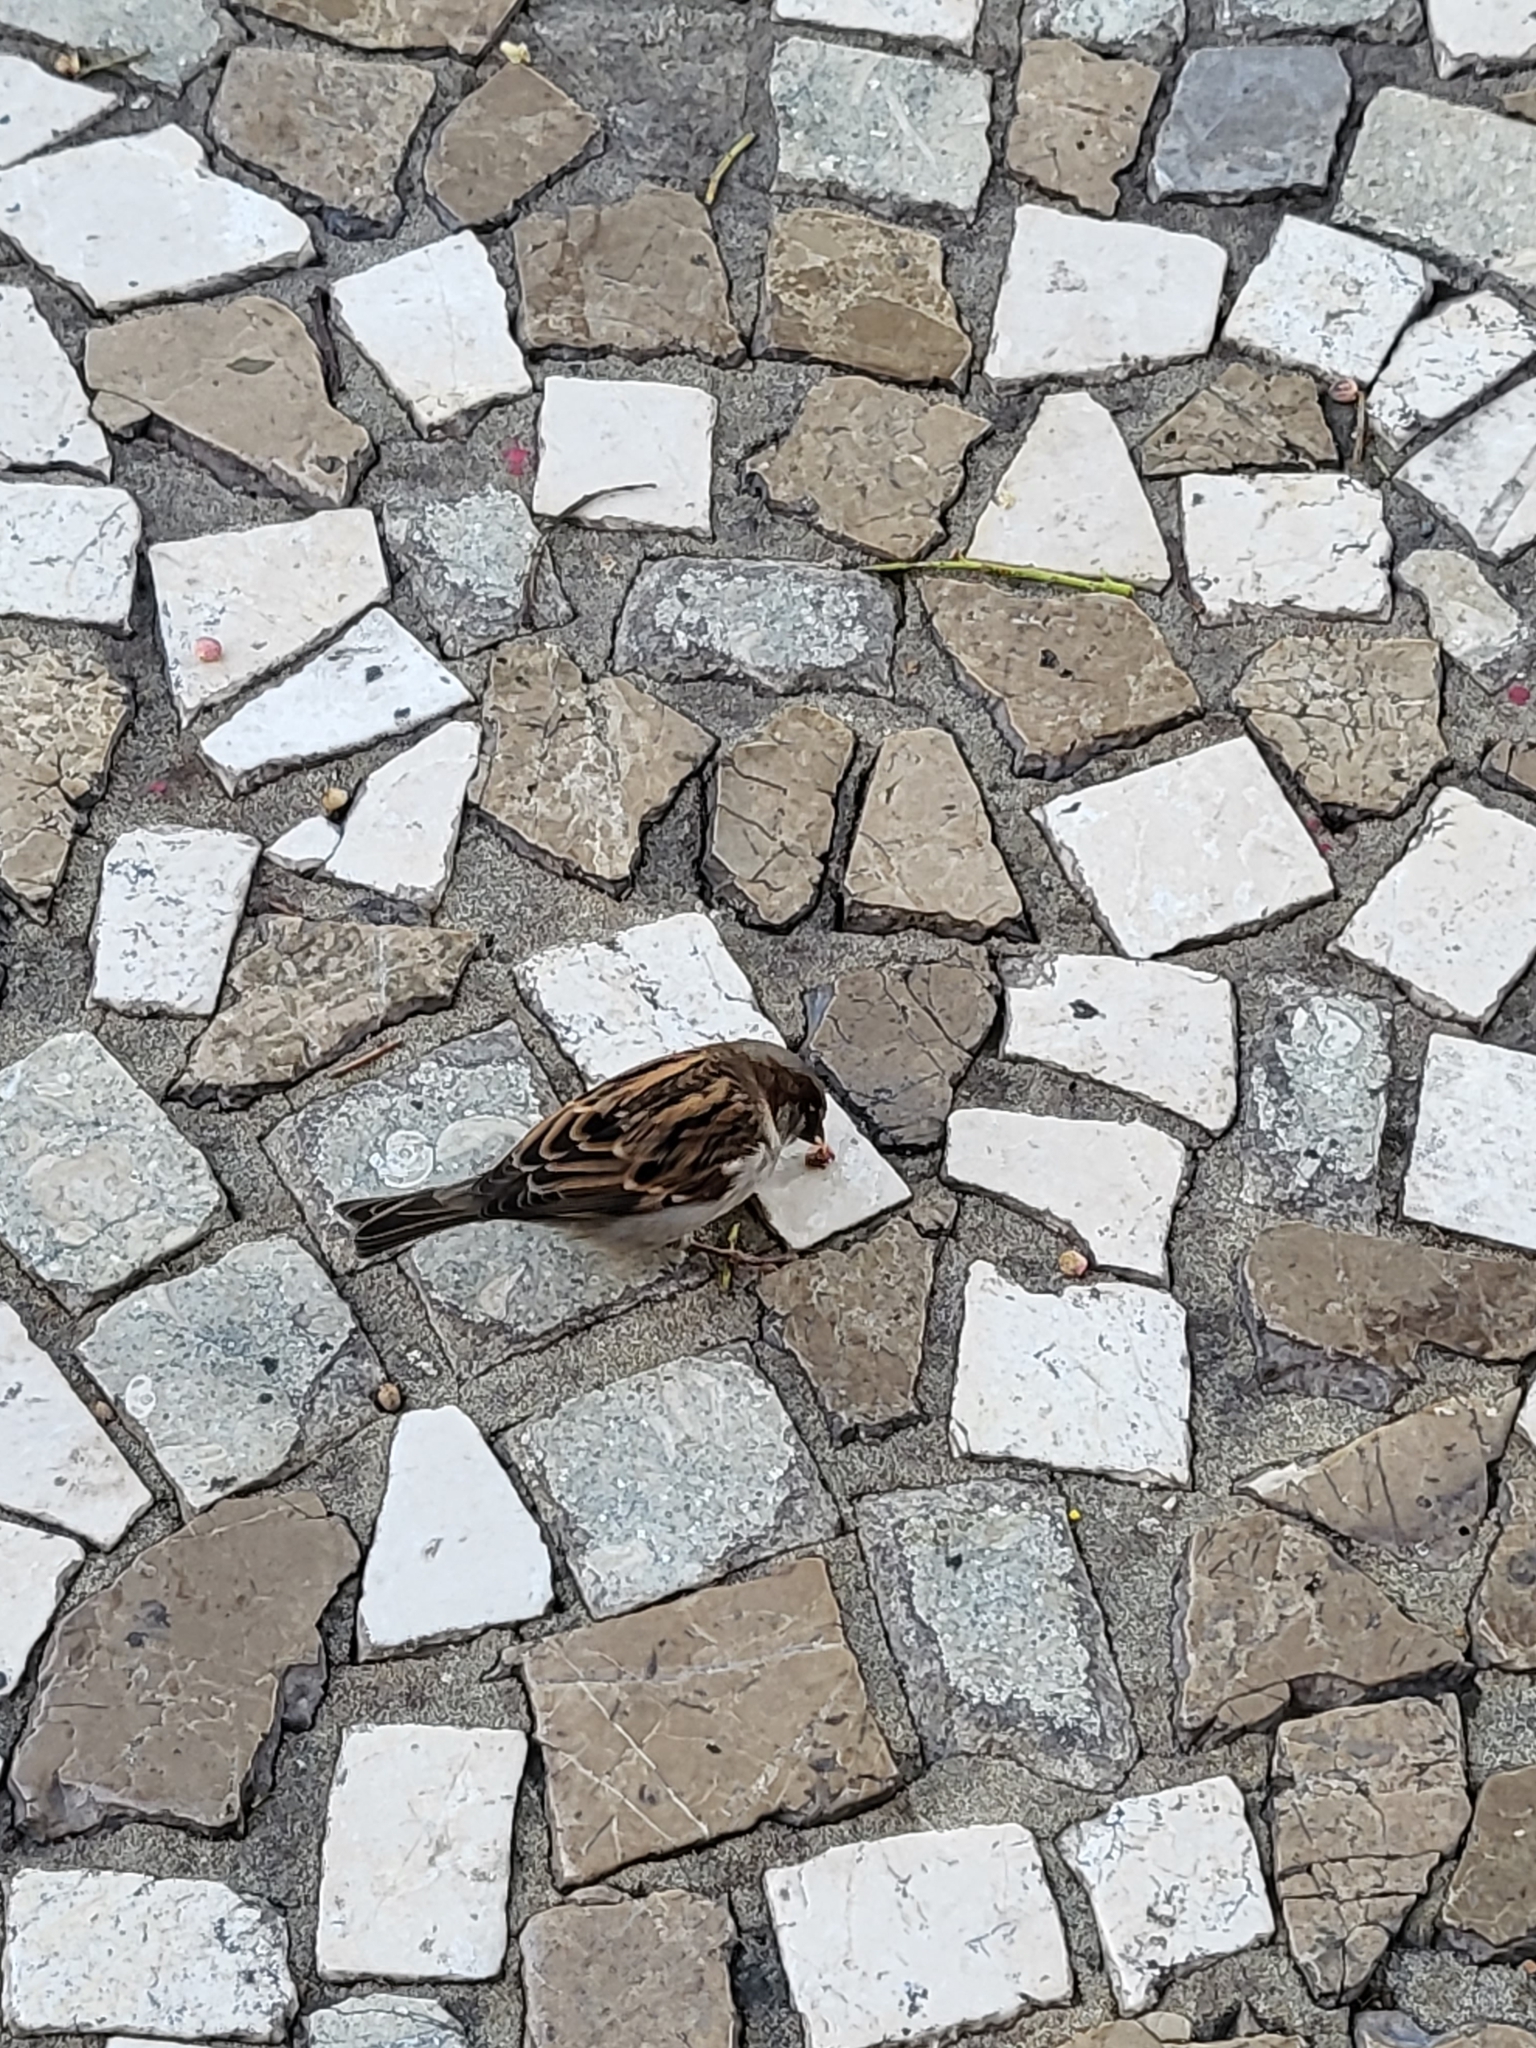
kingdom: Animalia
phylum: Chordata
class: Aves
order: Passeriformes
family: Passeridae
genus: Passer
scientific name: Passer domesticus
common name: House sparrow
